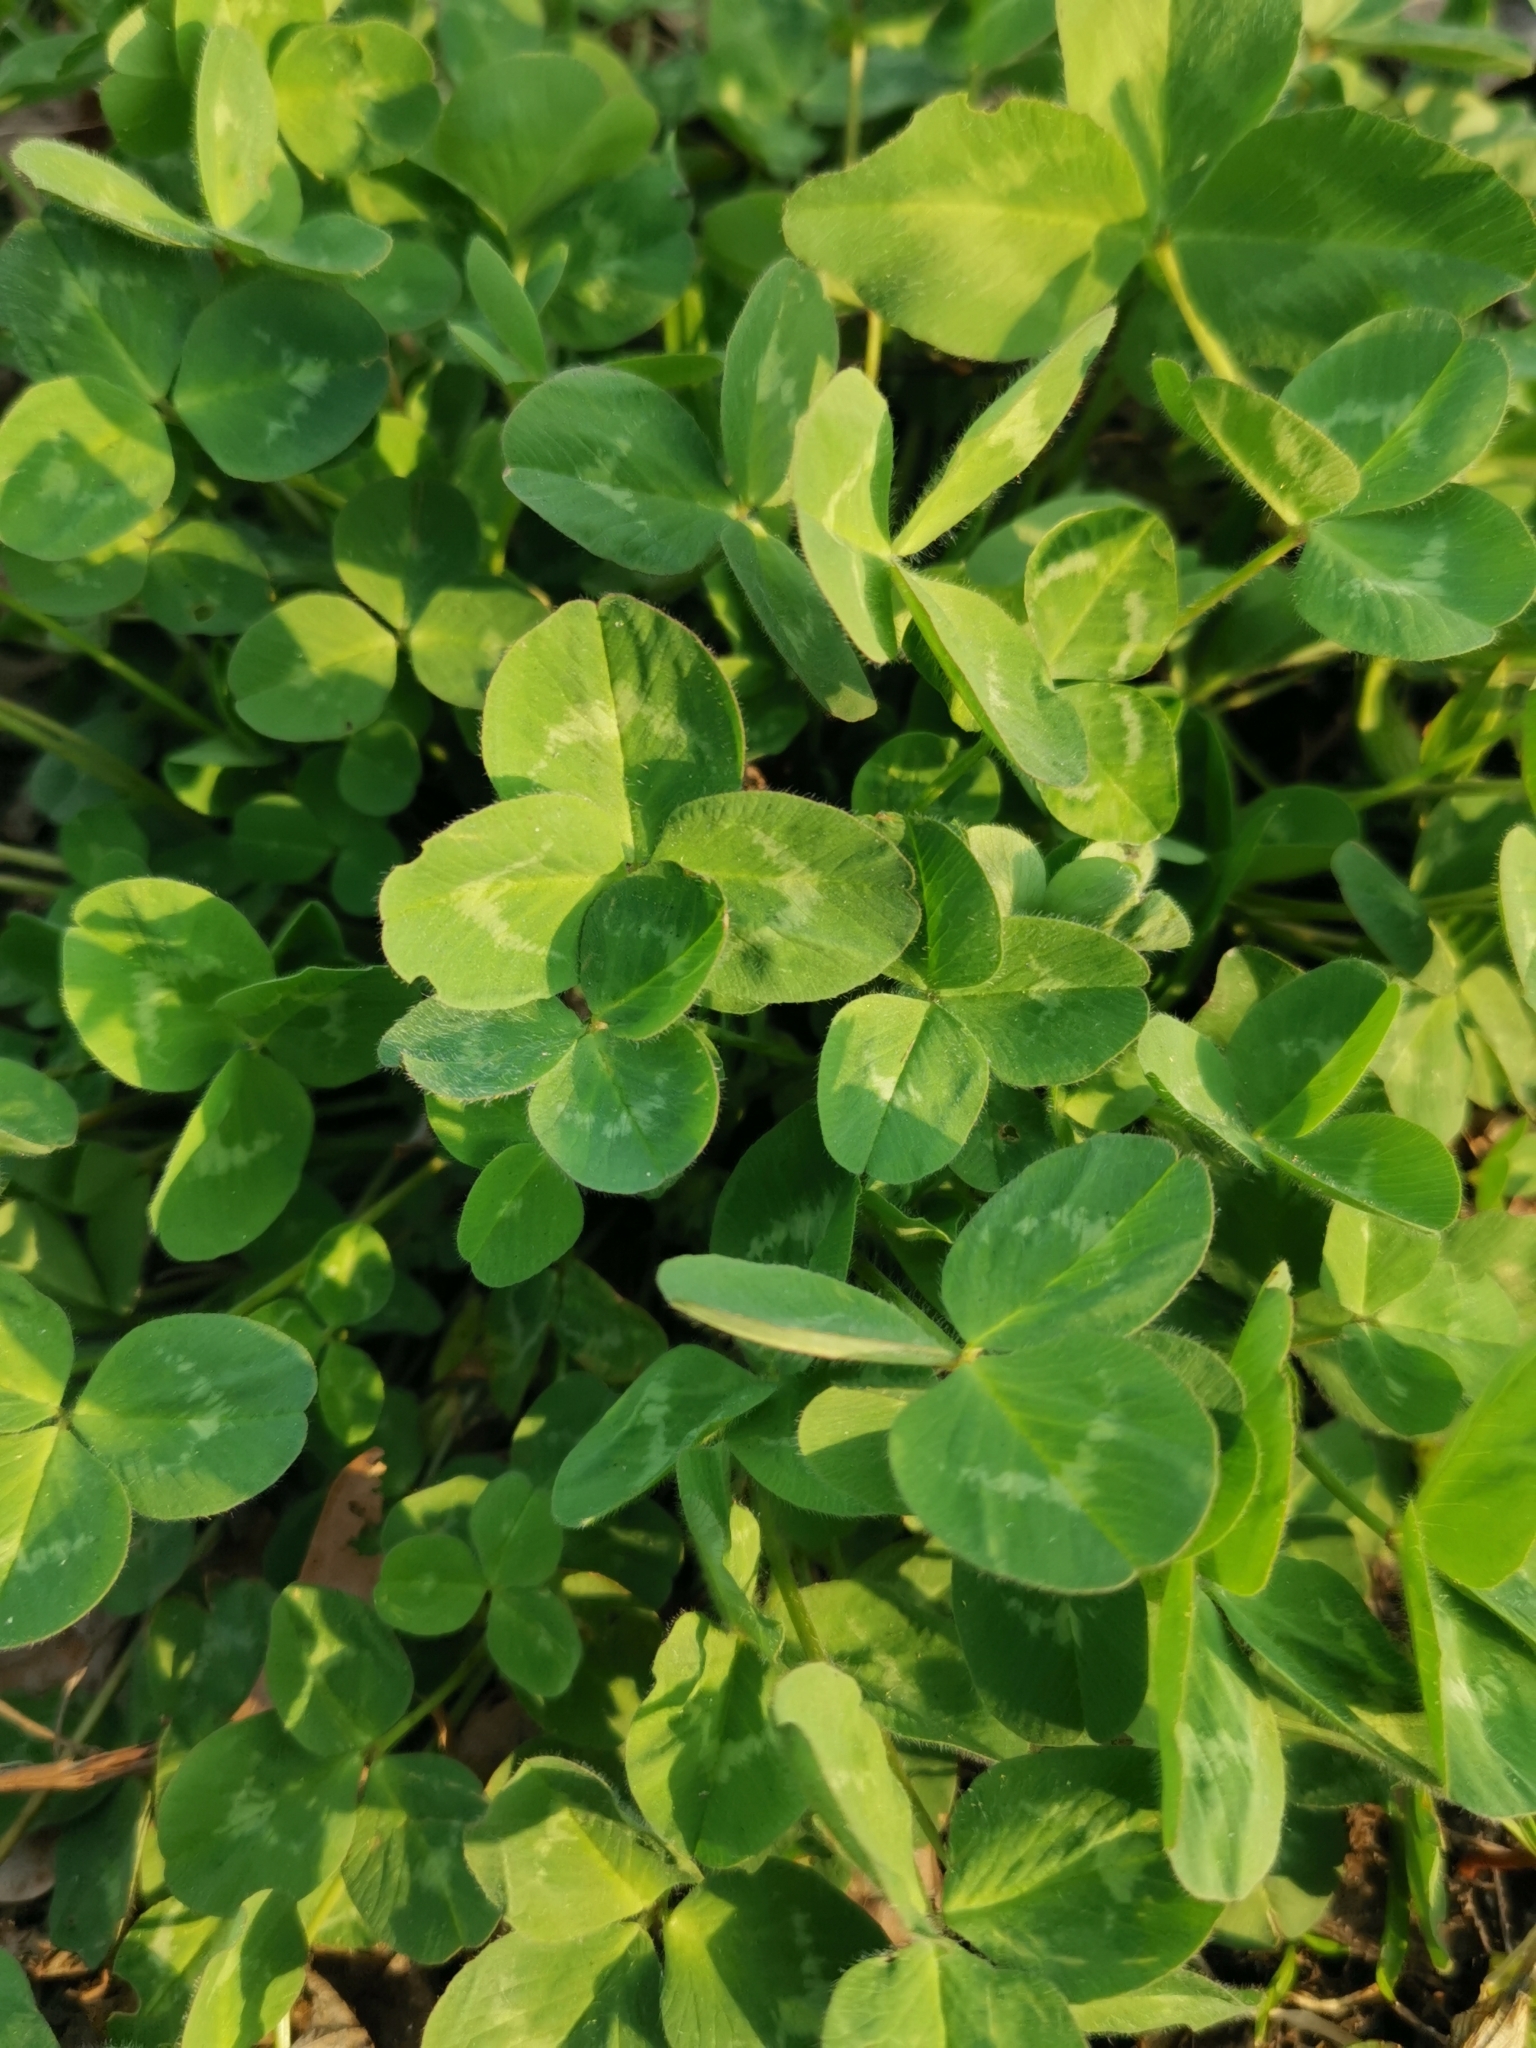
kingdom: Plantae
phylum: Tracheophyta
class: Magnoliopsida
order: Fabales
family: Fabaceae
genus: Trifolium
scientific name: Trifolium repens
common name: White clover
